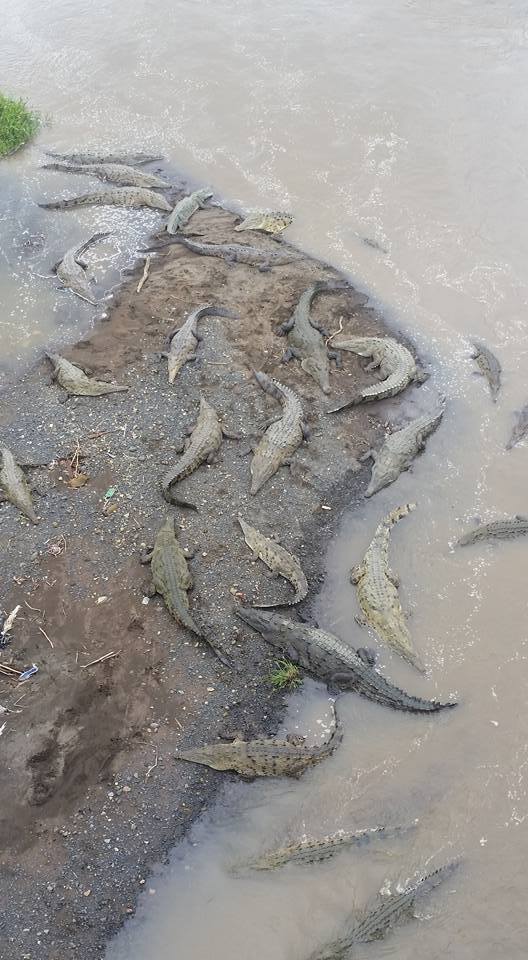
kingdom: Animalia
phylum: Chordata
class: Crocodylia
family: Crocodylidae
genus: Crocodylus
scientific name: Crocodylus acutus
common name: American crocodile
